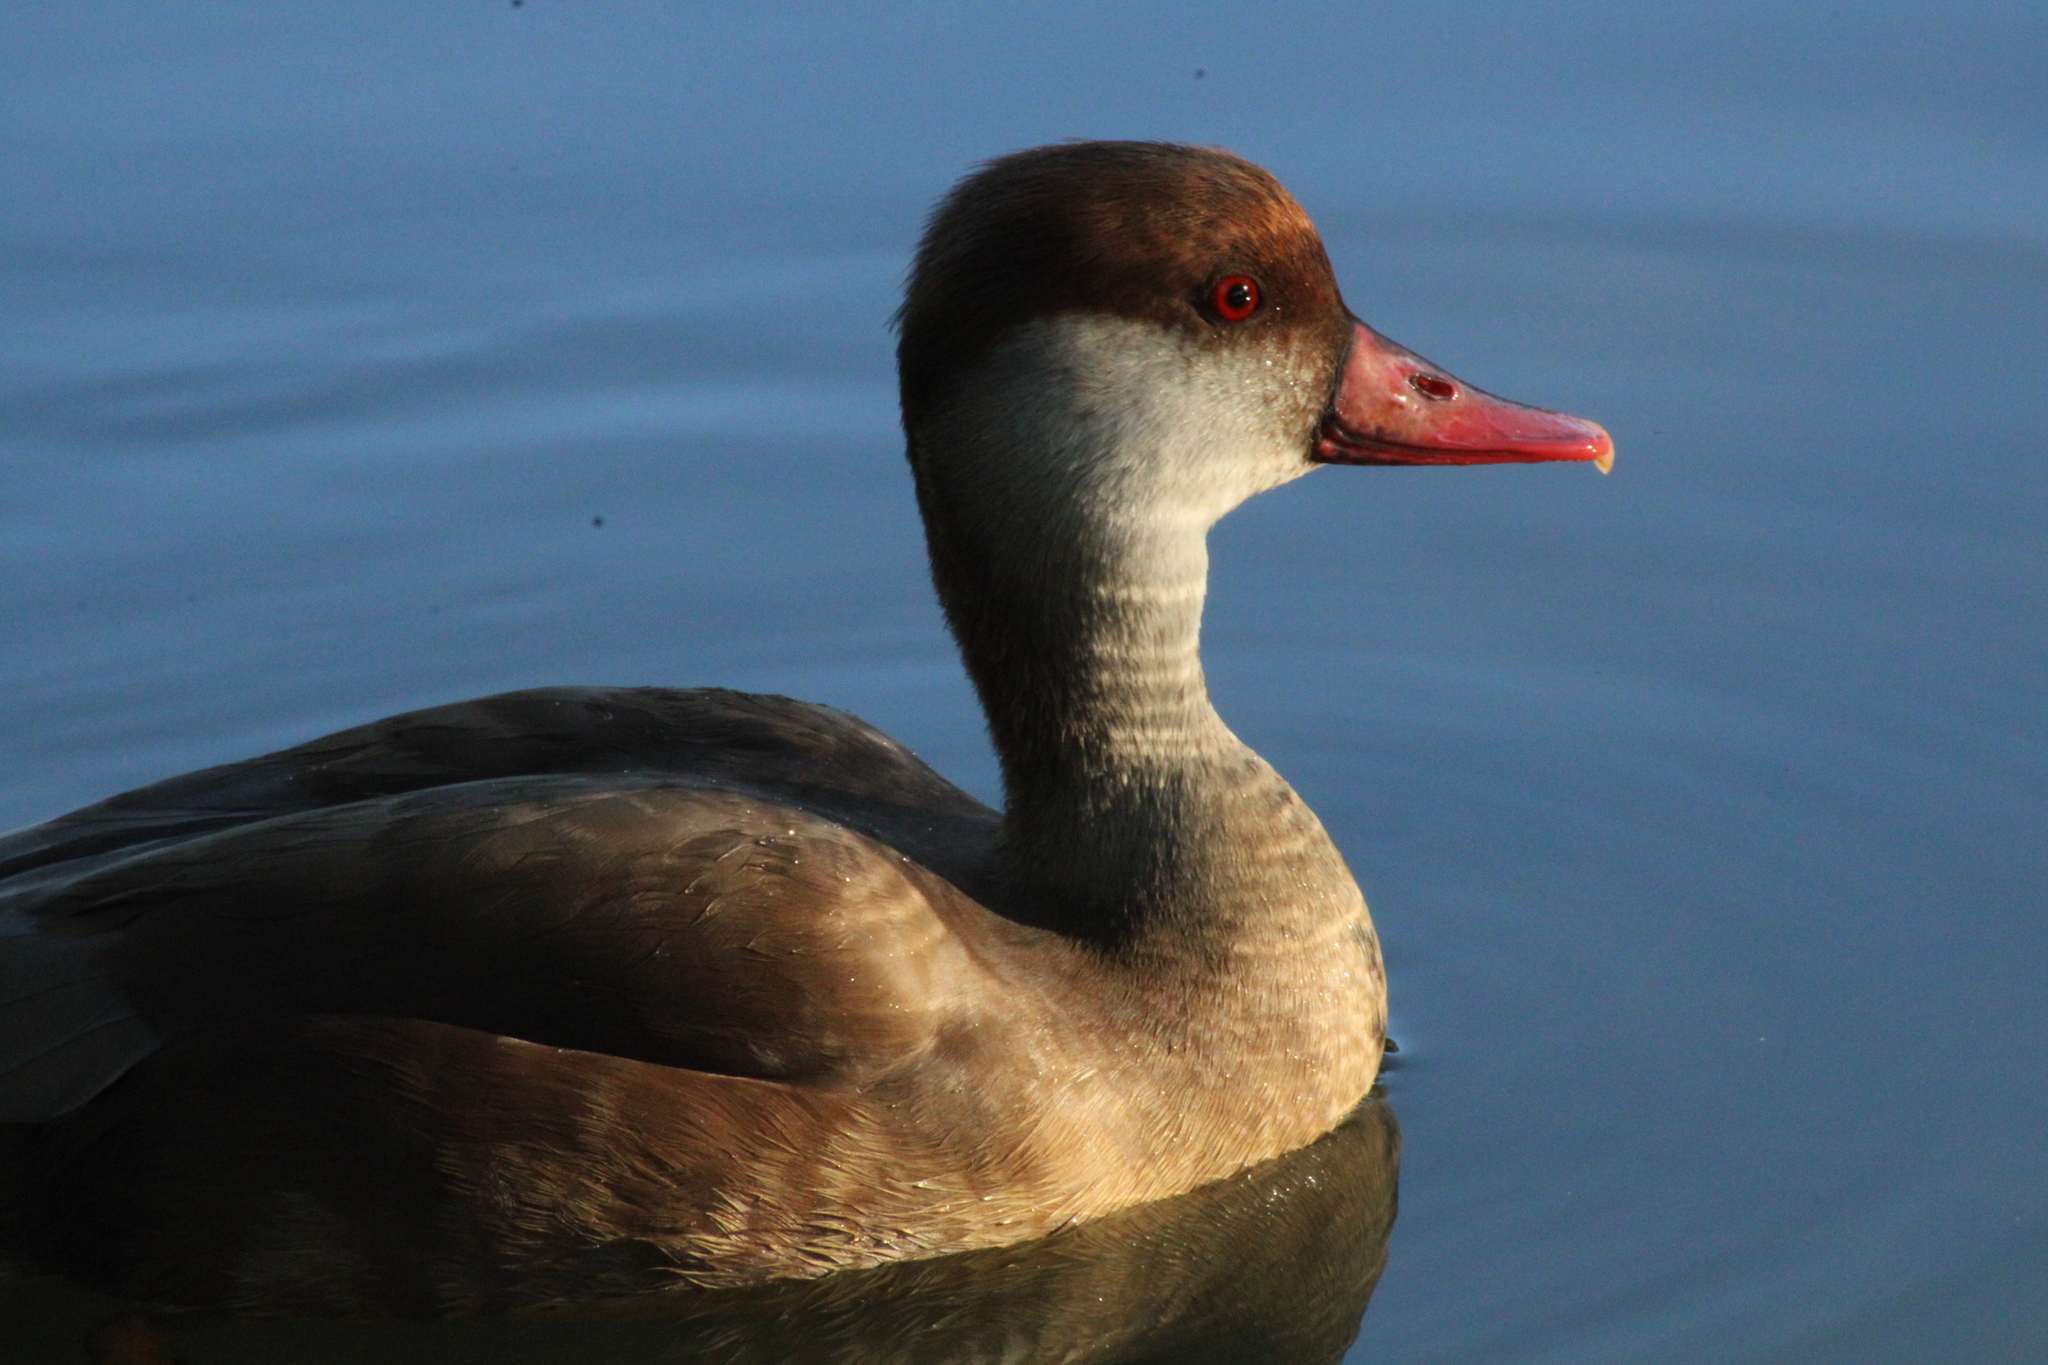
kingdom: Animalia
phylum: Chordata
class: Aves
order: Anseriformes
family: Anatidae
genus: Netta
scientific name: Netta rufina
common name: Red-crested pochard
